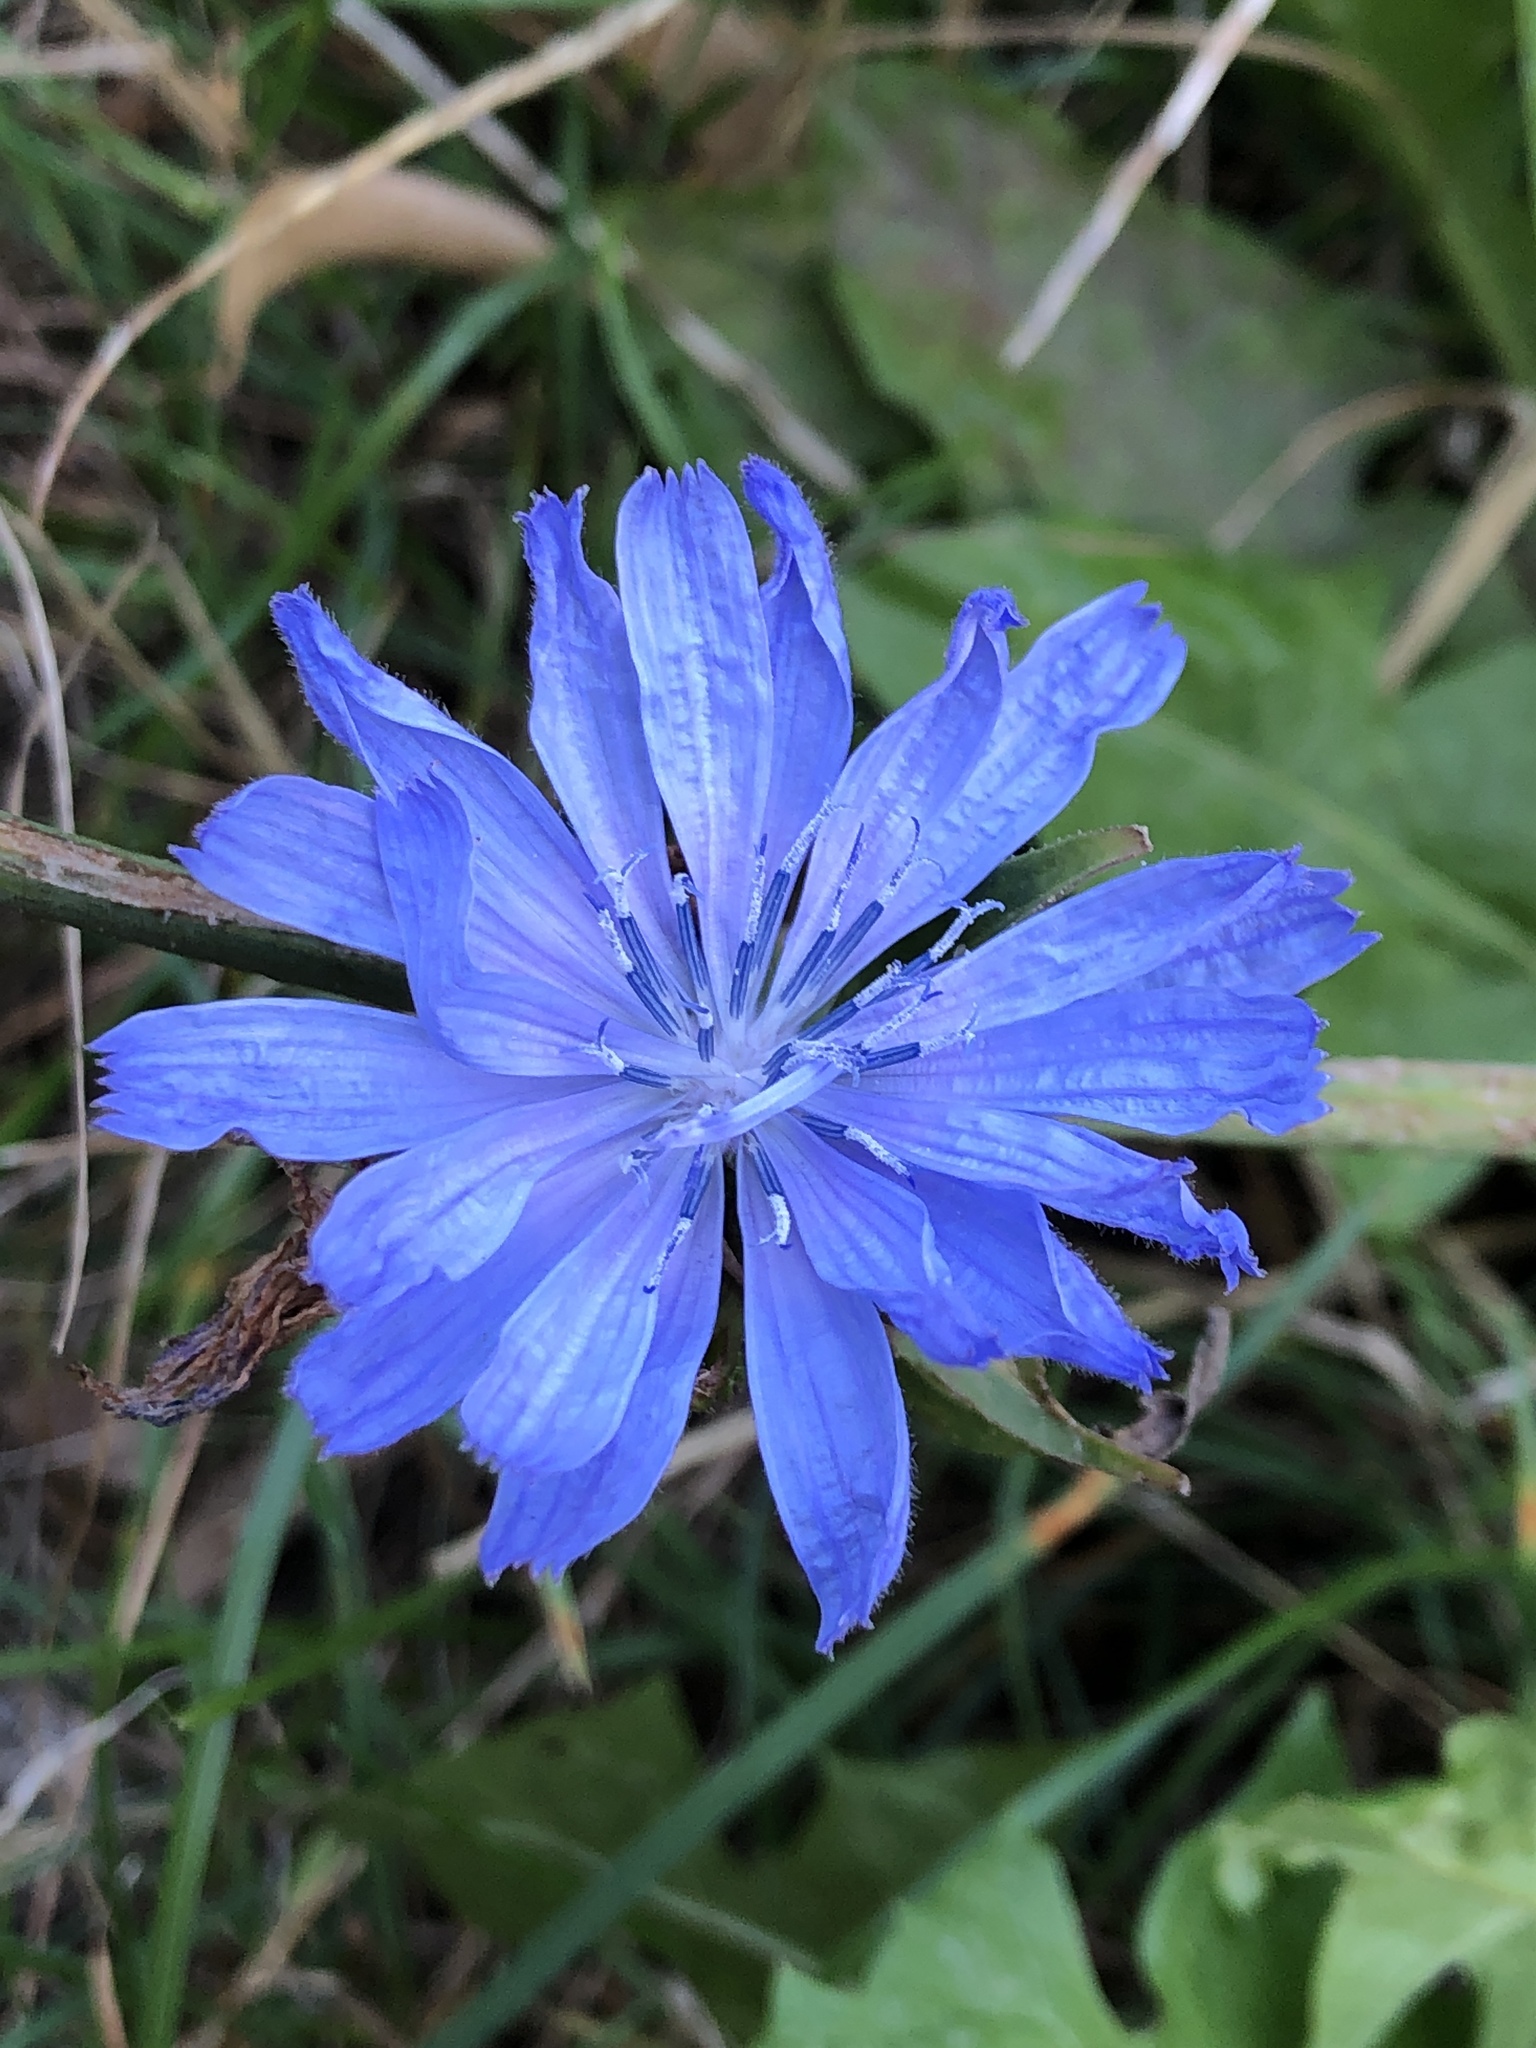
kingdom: Plantae
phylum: Tracheophyta
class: Magnoliopsida
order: Asterales
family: Asteraceae
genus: Cichorium
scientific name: Cichorium intybus
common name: Chicory
